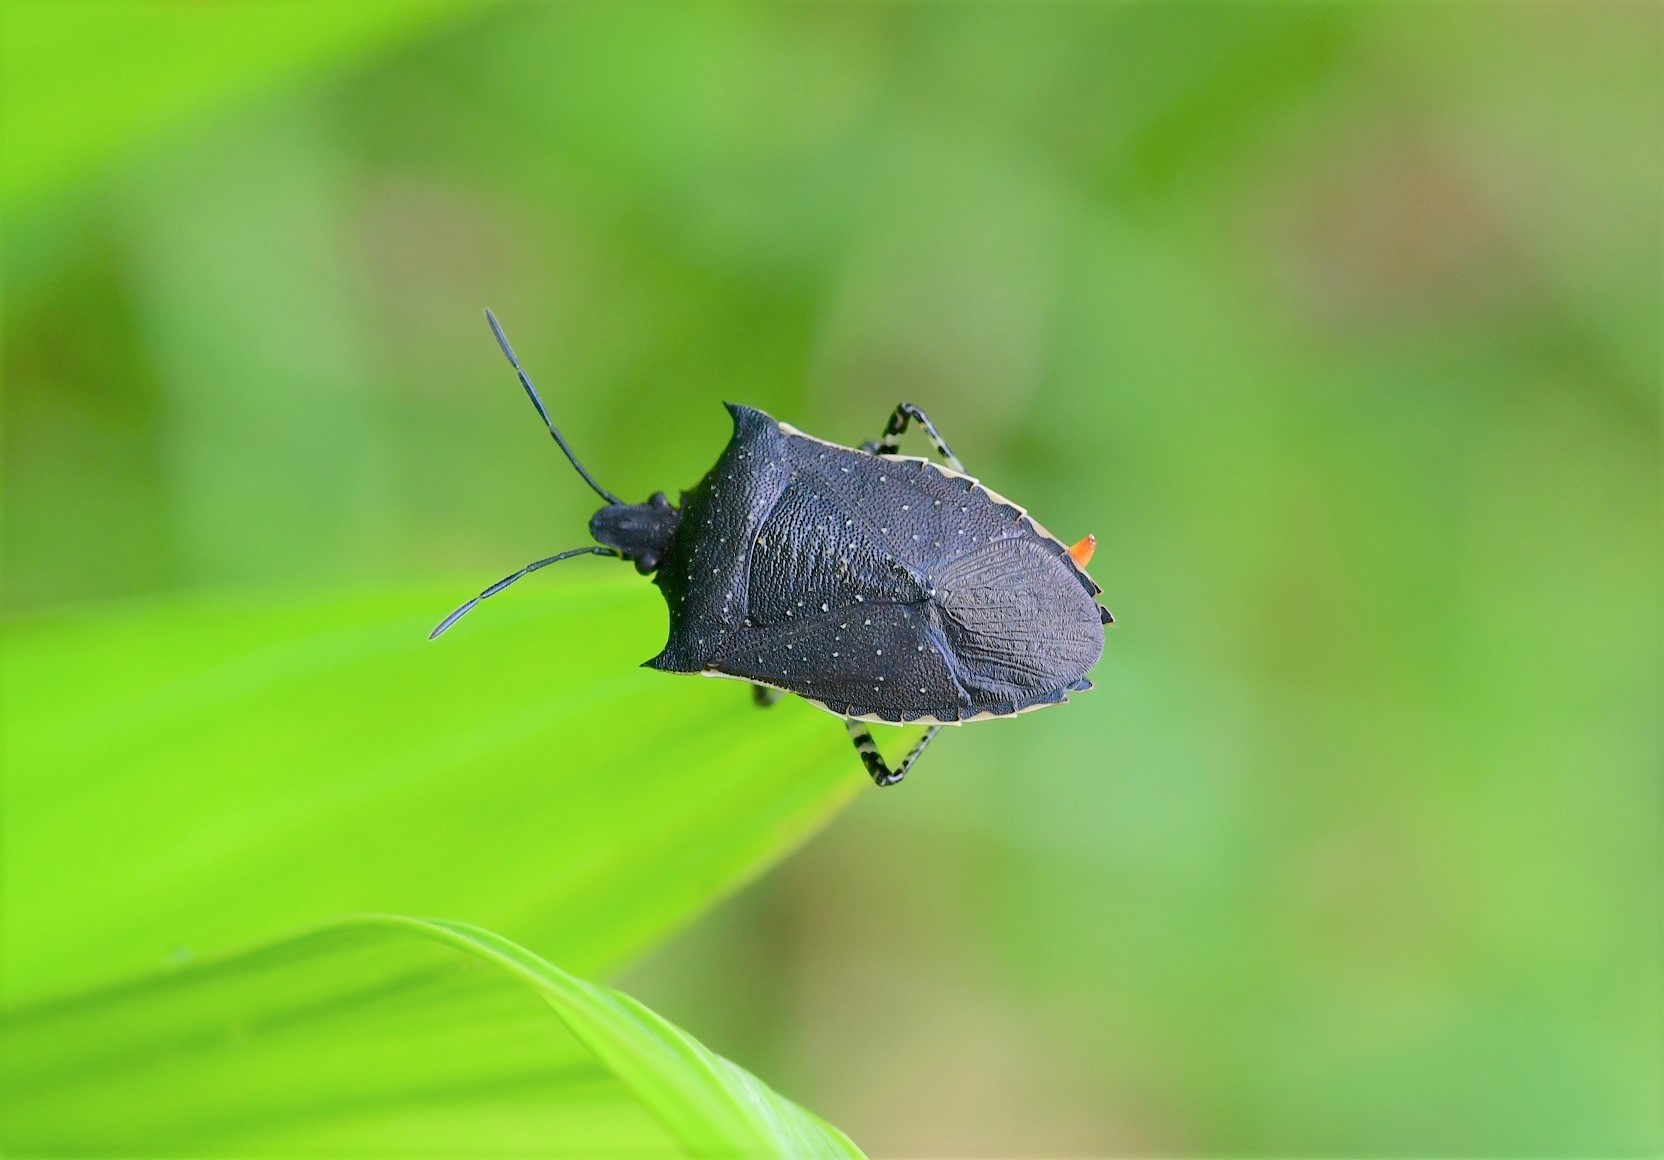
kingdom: Animalia
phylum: Arthropoda
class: Insecta
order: Hemiptera
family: Pentatomidae
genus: Padaeus
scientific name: Padaeus trivittatus
